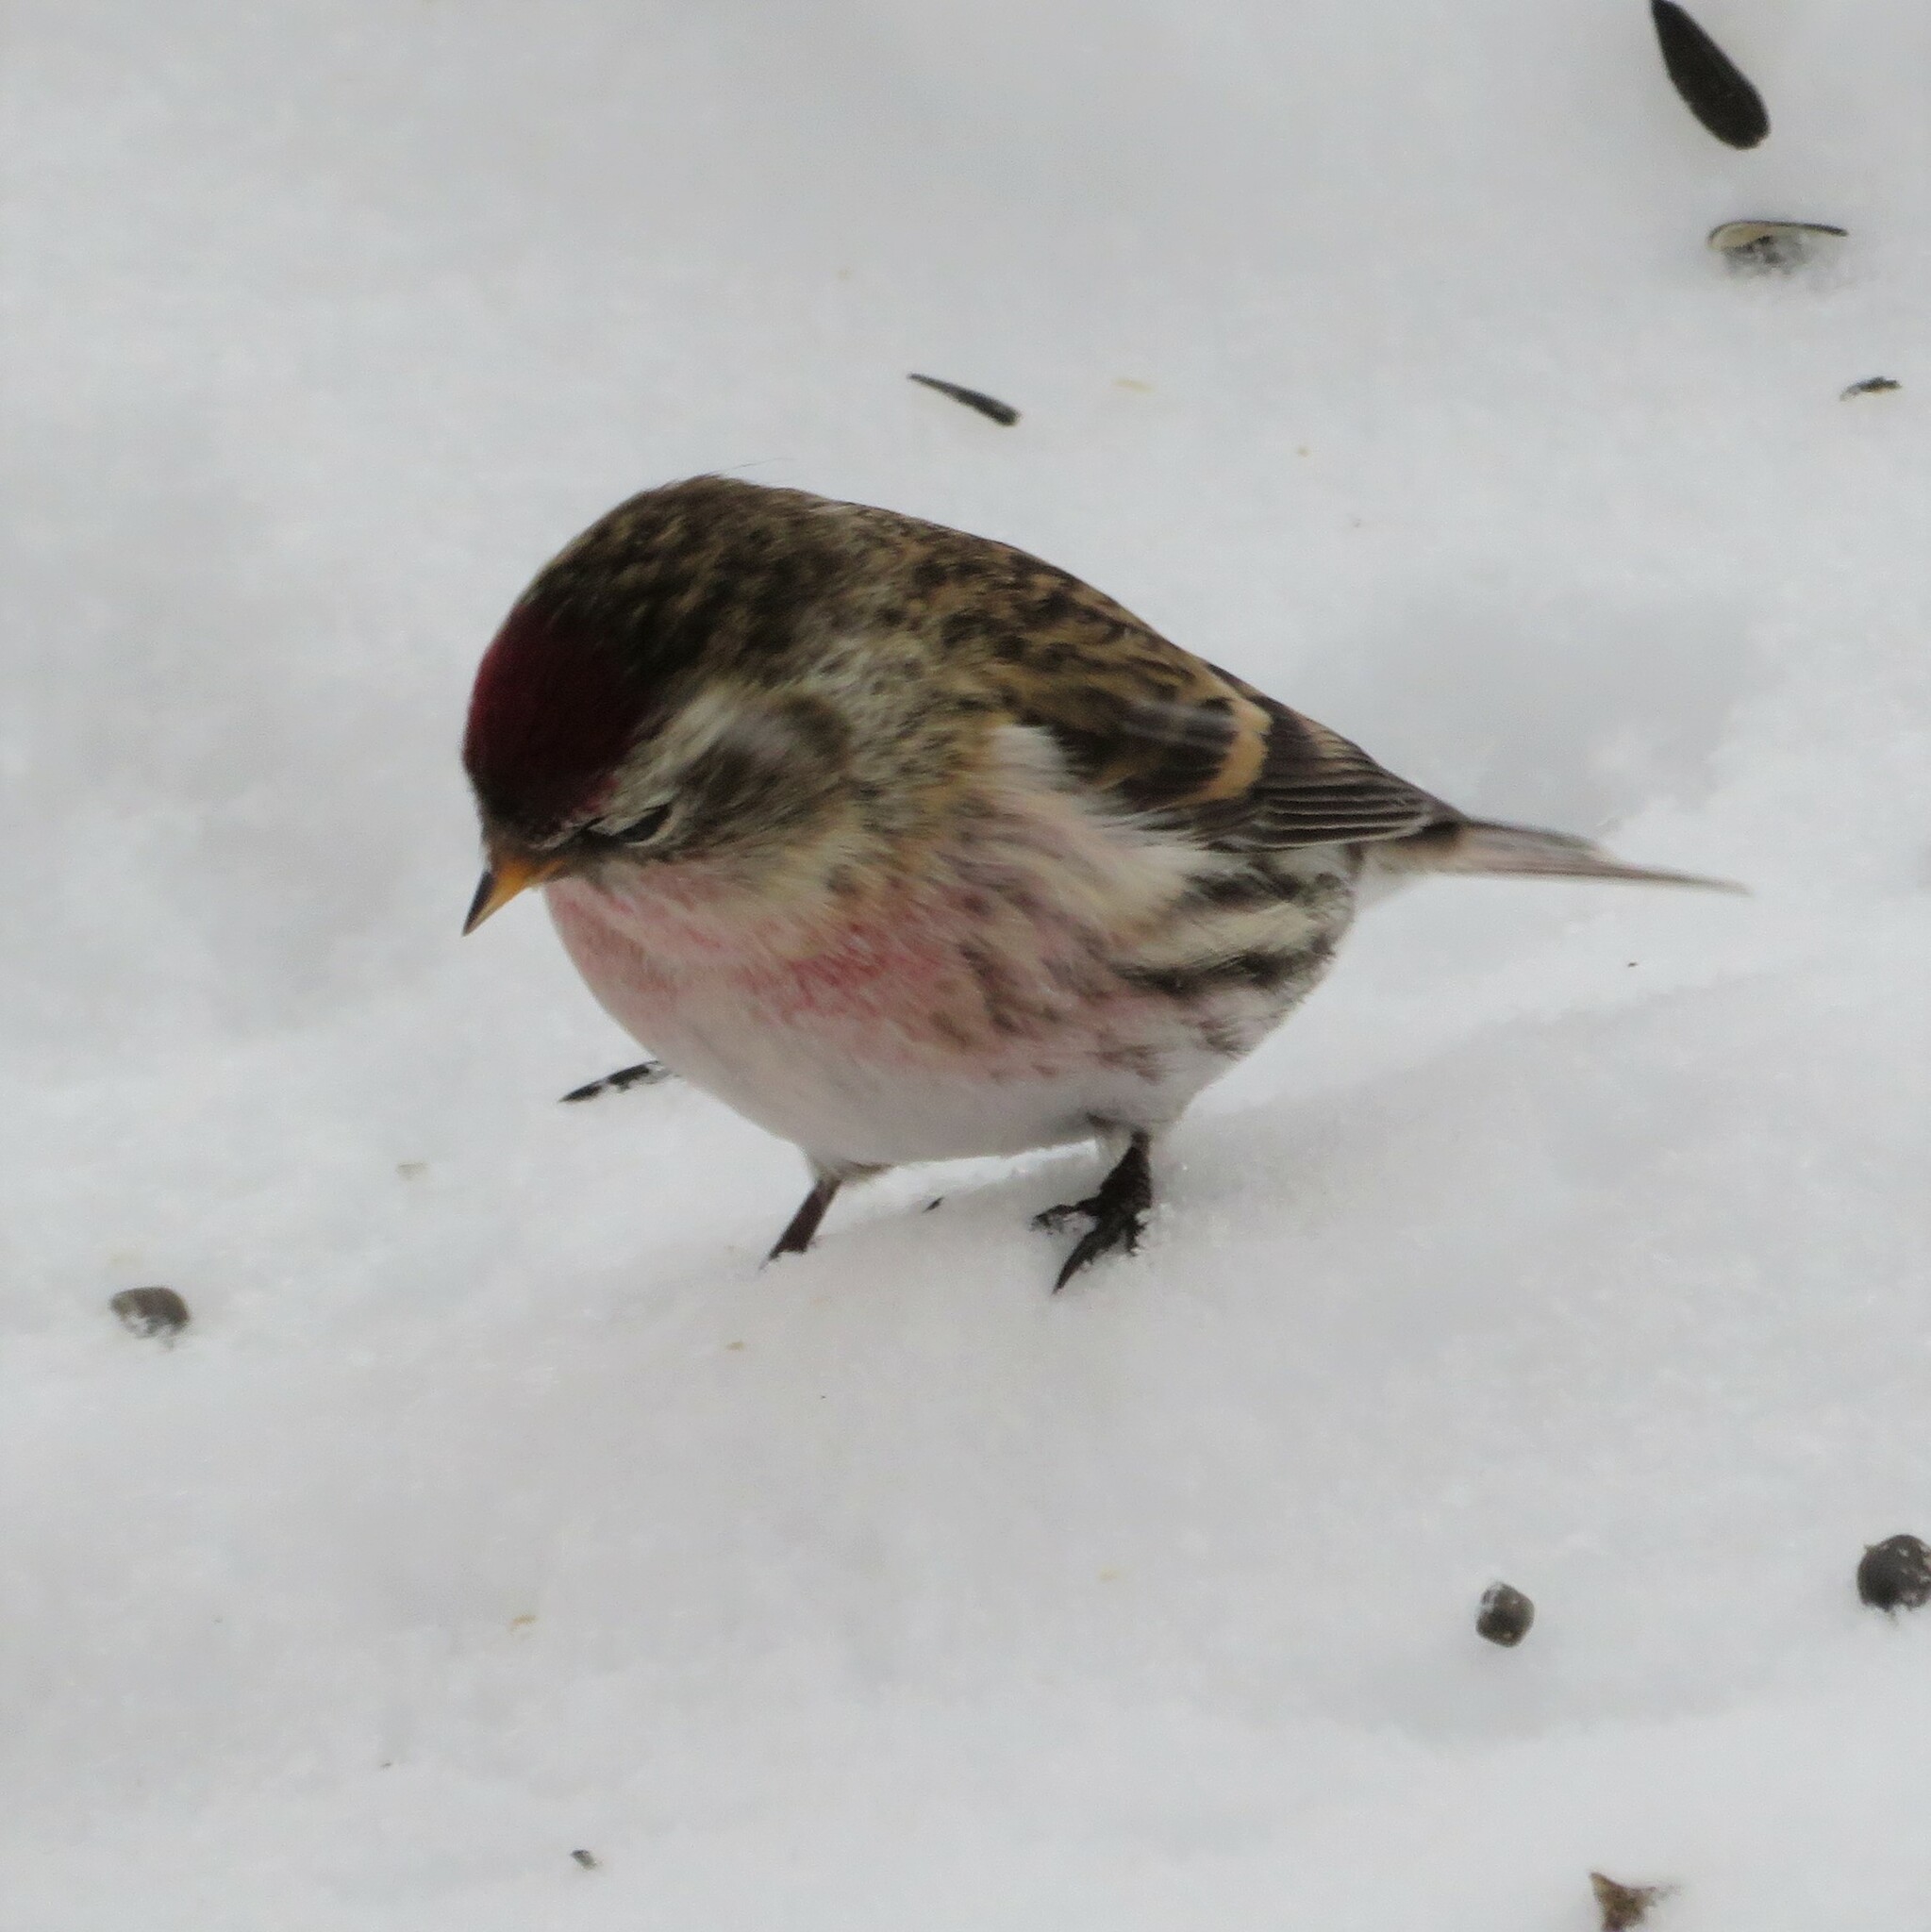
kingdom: Animalia
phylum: Chordata
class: Aves
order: Passeriformes
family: Fringillidae
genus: Acanthis
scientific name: Acanthis flammea
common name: Common redpoll
